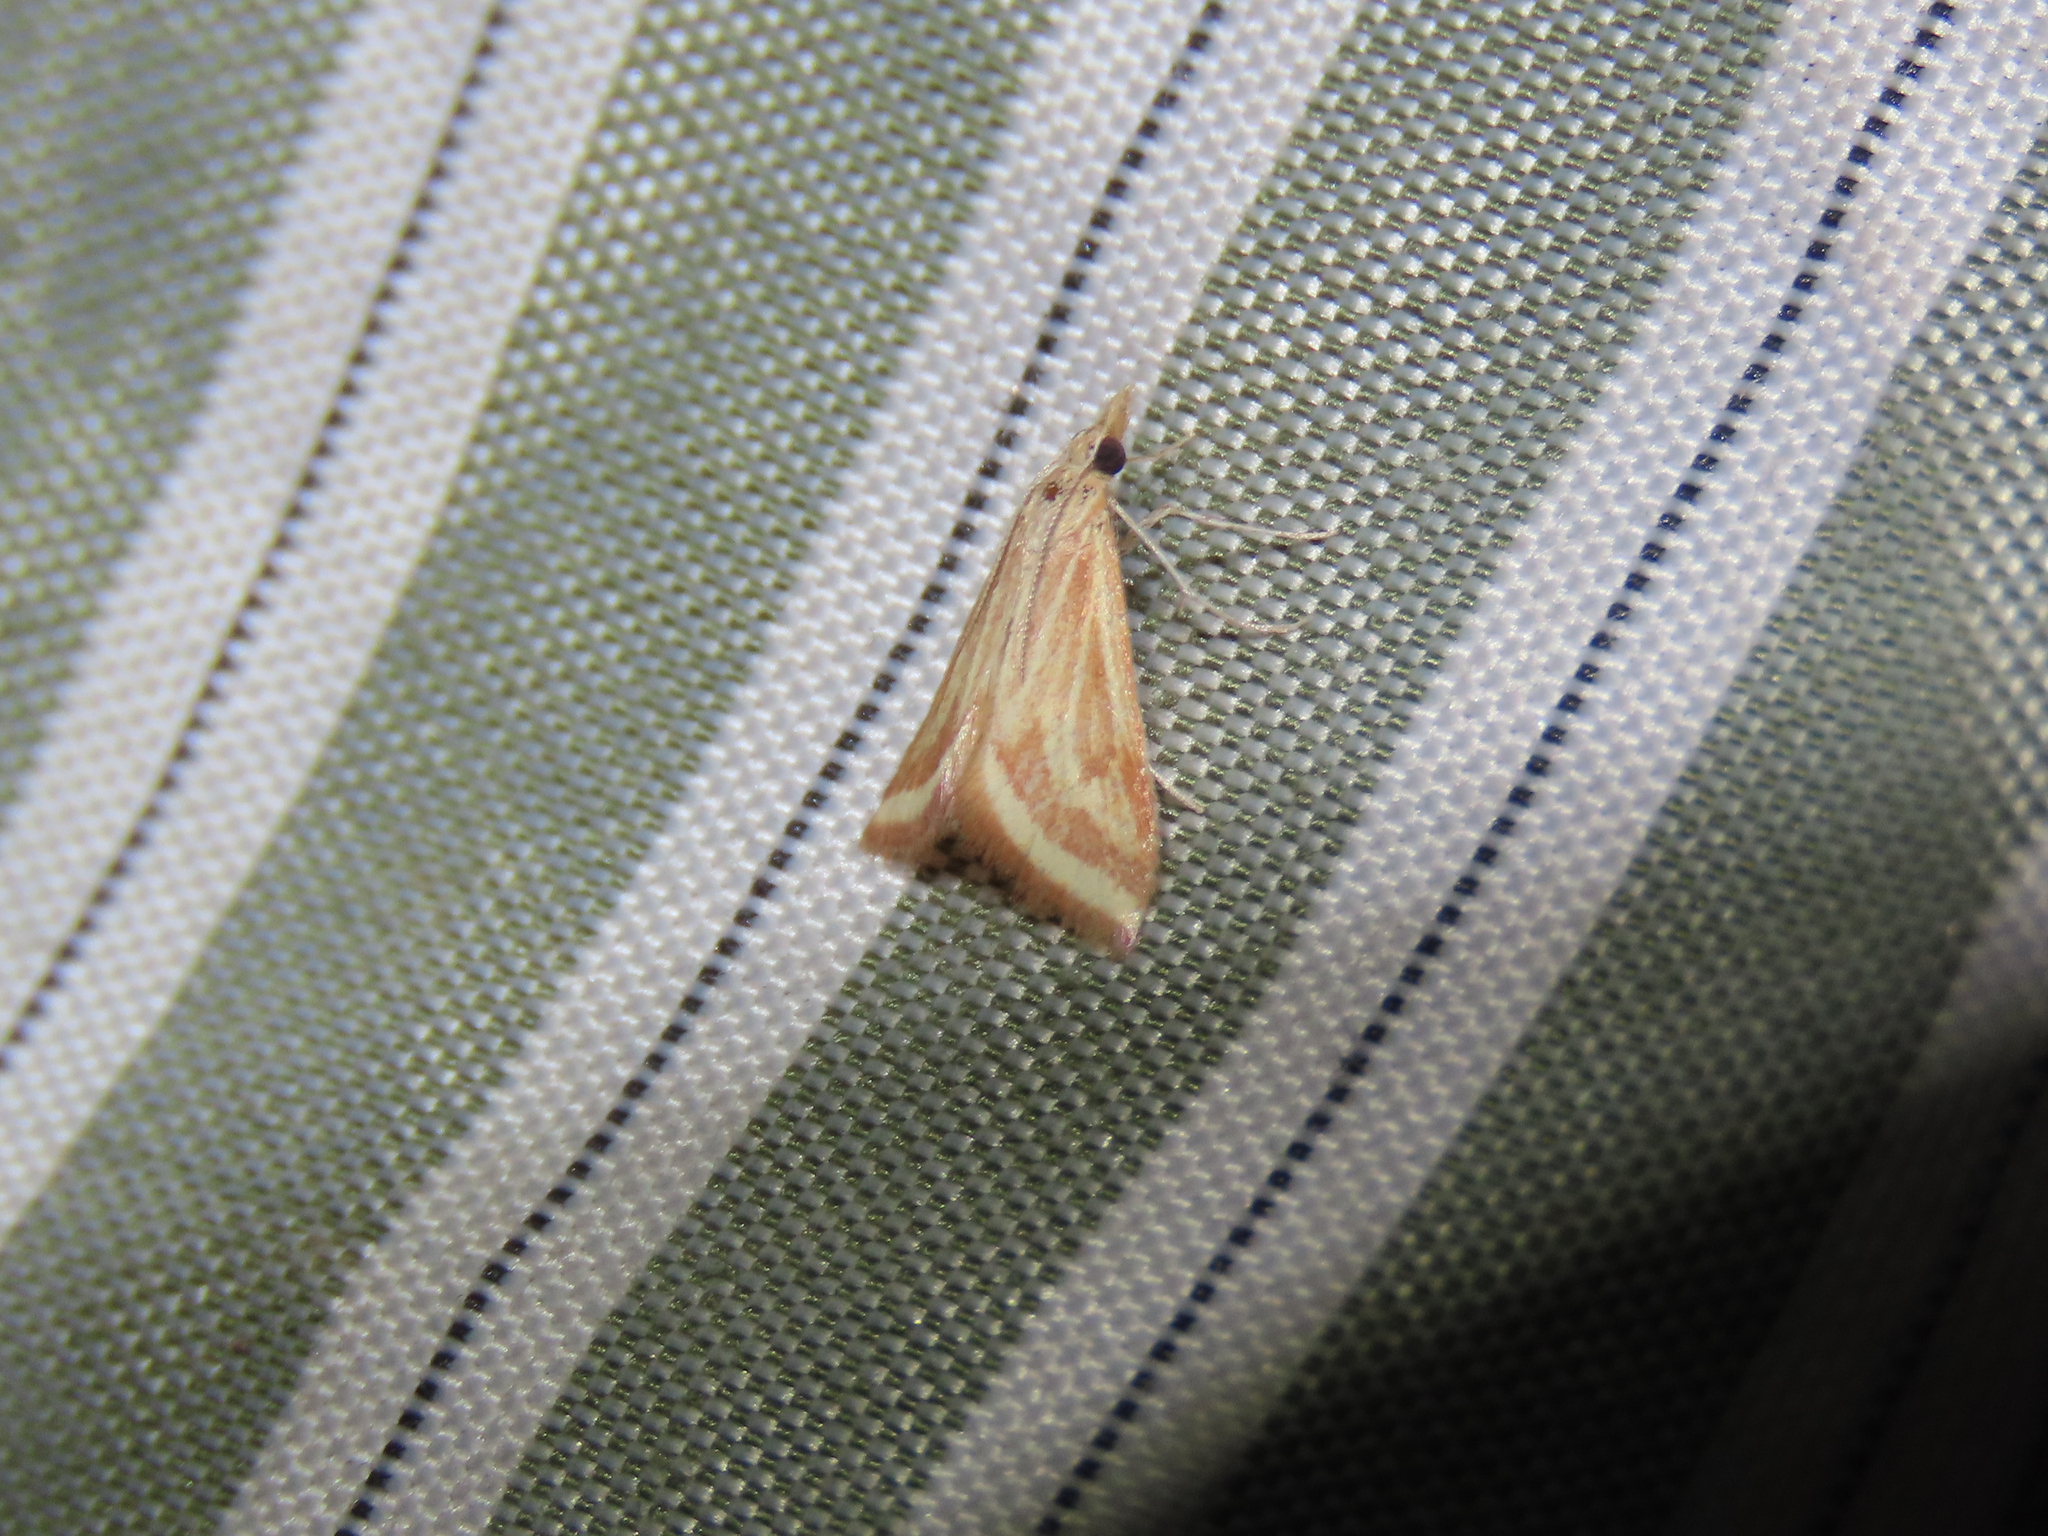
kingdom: Animalia
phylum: Arthropoda
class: Insecta
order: Lepidoptera
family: Crambidae
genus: Microtheoris
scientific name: Microtheoris ophionalis
